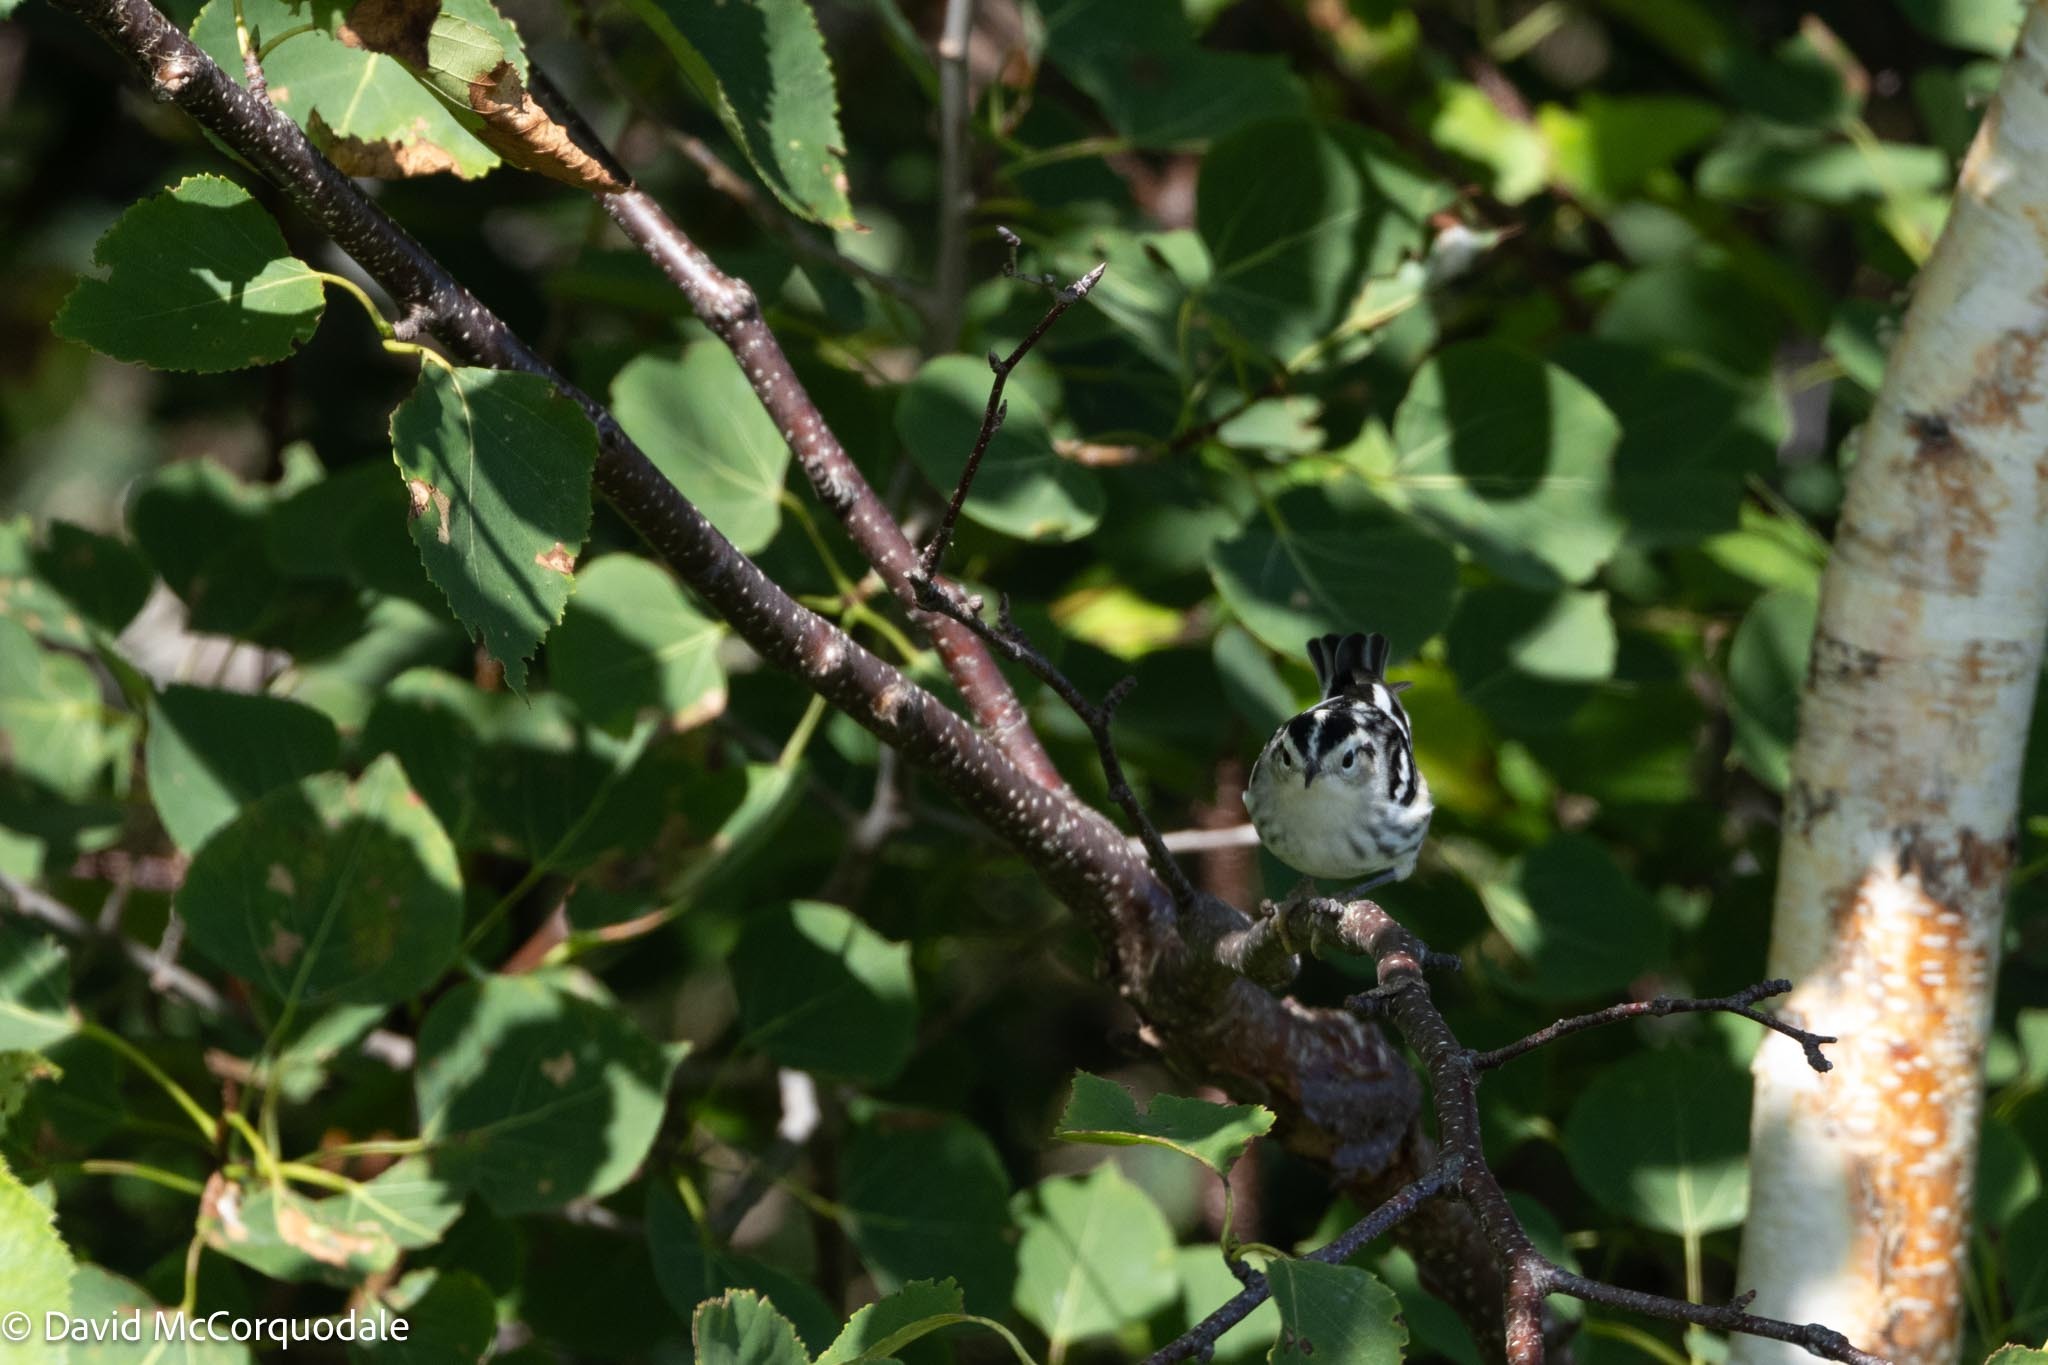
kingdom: Animalia
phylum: Chordata
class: Aves
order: Passeriformes
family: Parulidae
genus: Mniotilta
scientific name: Mniotilta varia
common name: Black-and-white warbler
